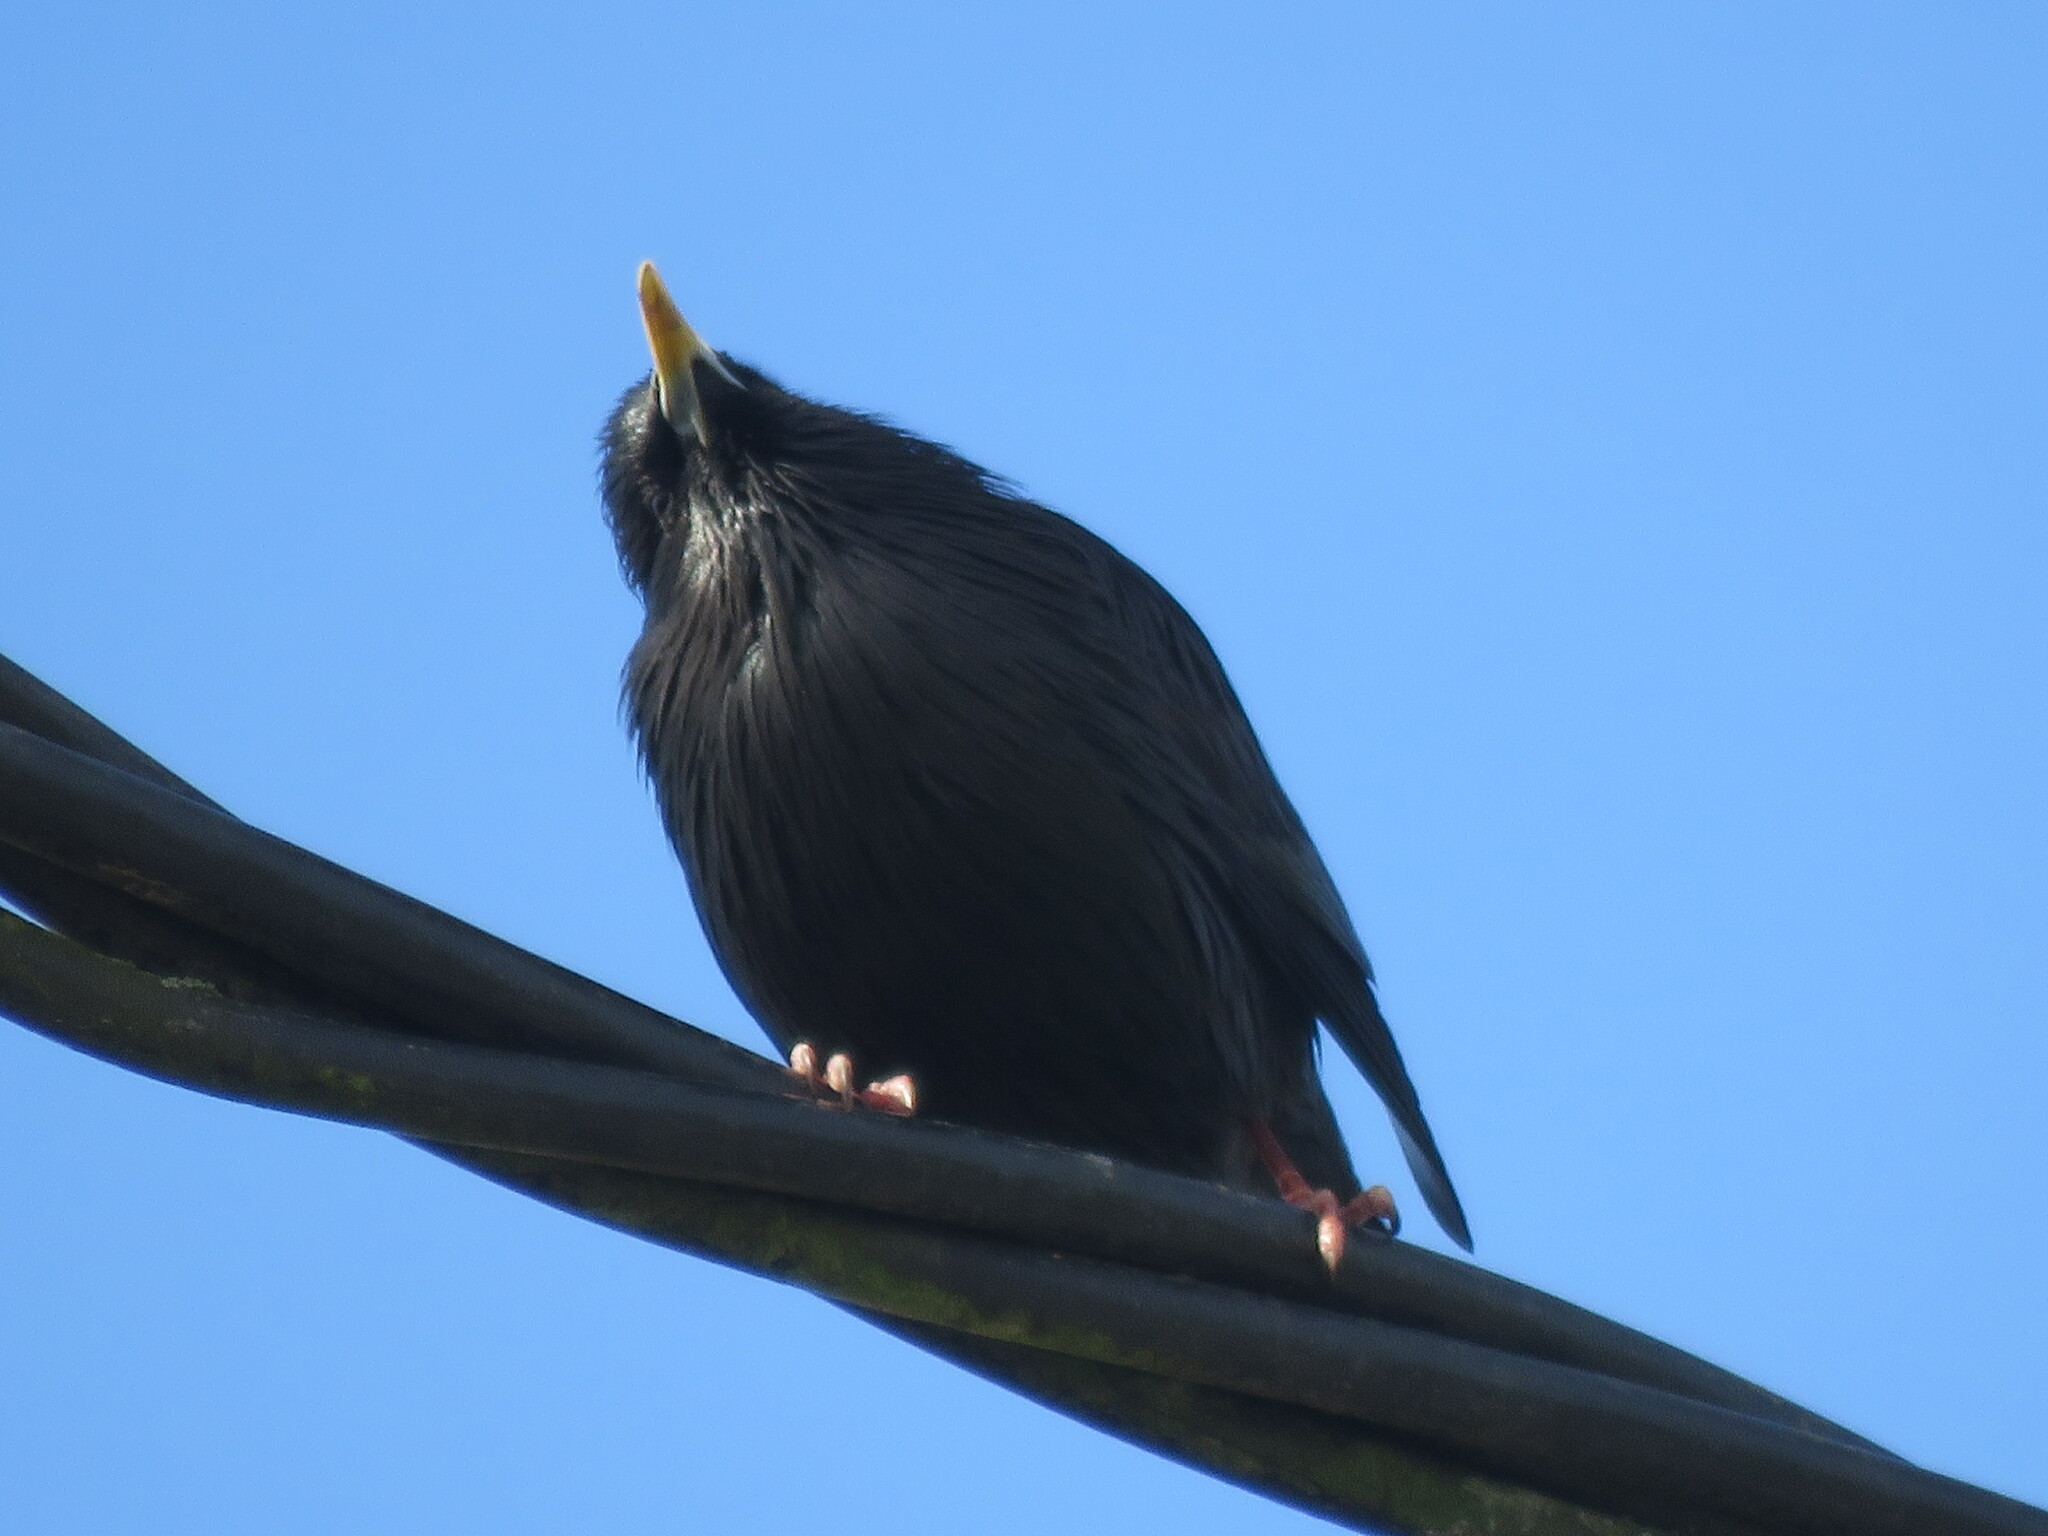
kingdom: Animalia
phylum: Chordata
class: Aves
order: Passeriformes
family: Sturnidae
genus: Sturnus
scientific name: Sturnus unicolor
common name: Spotless starling
